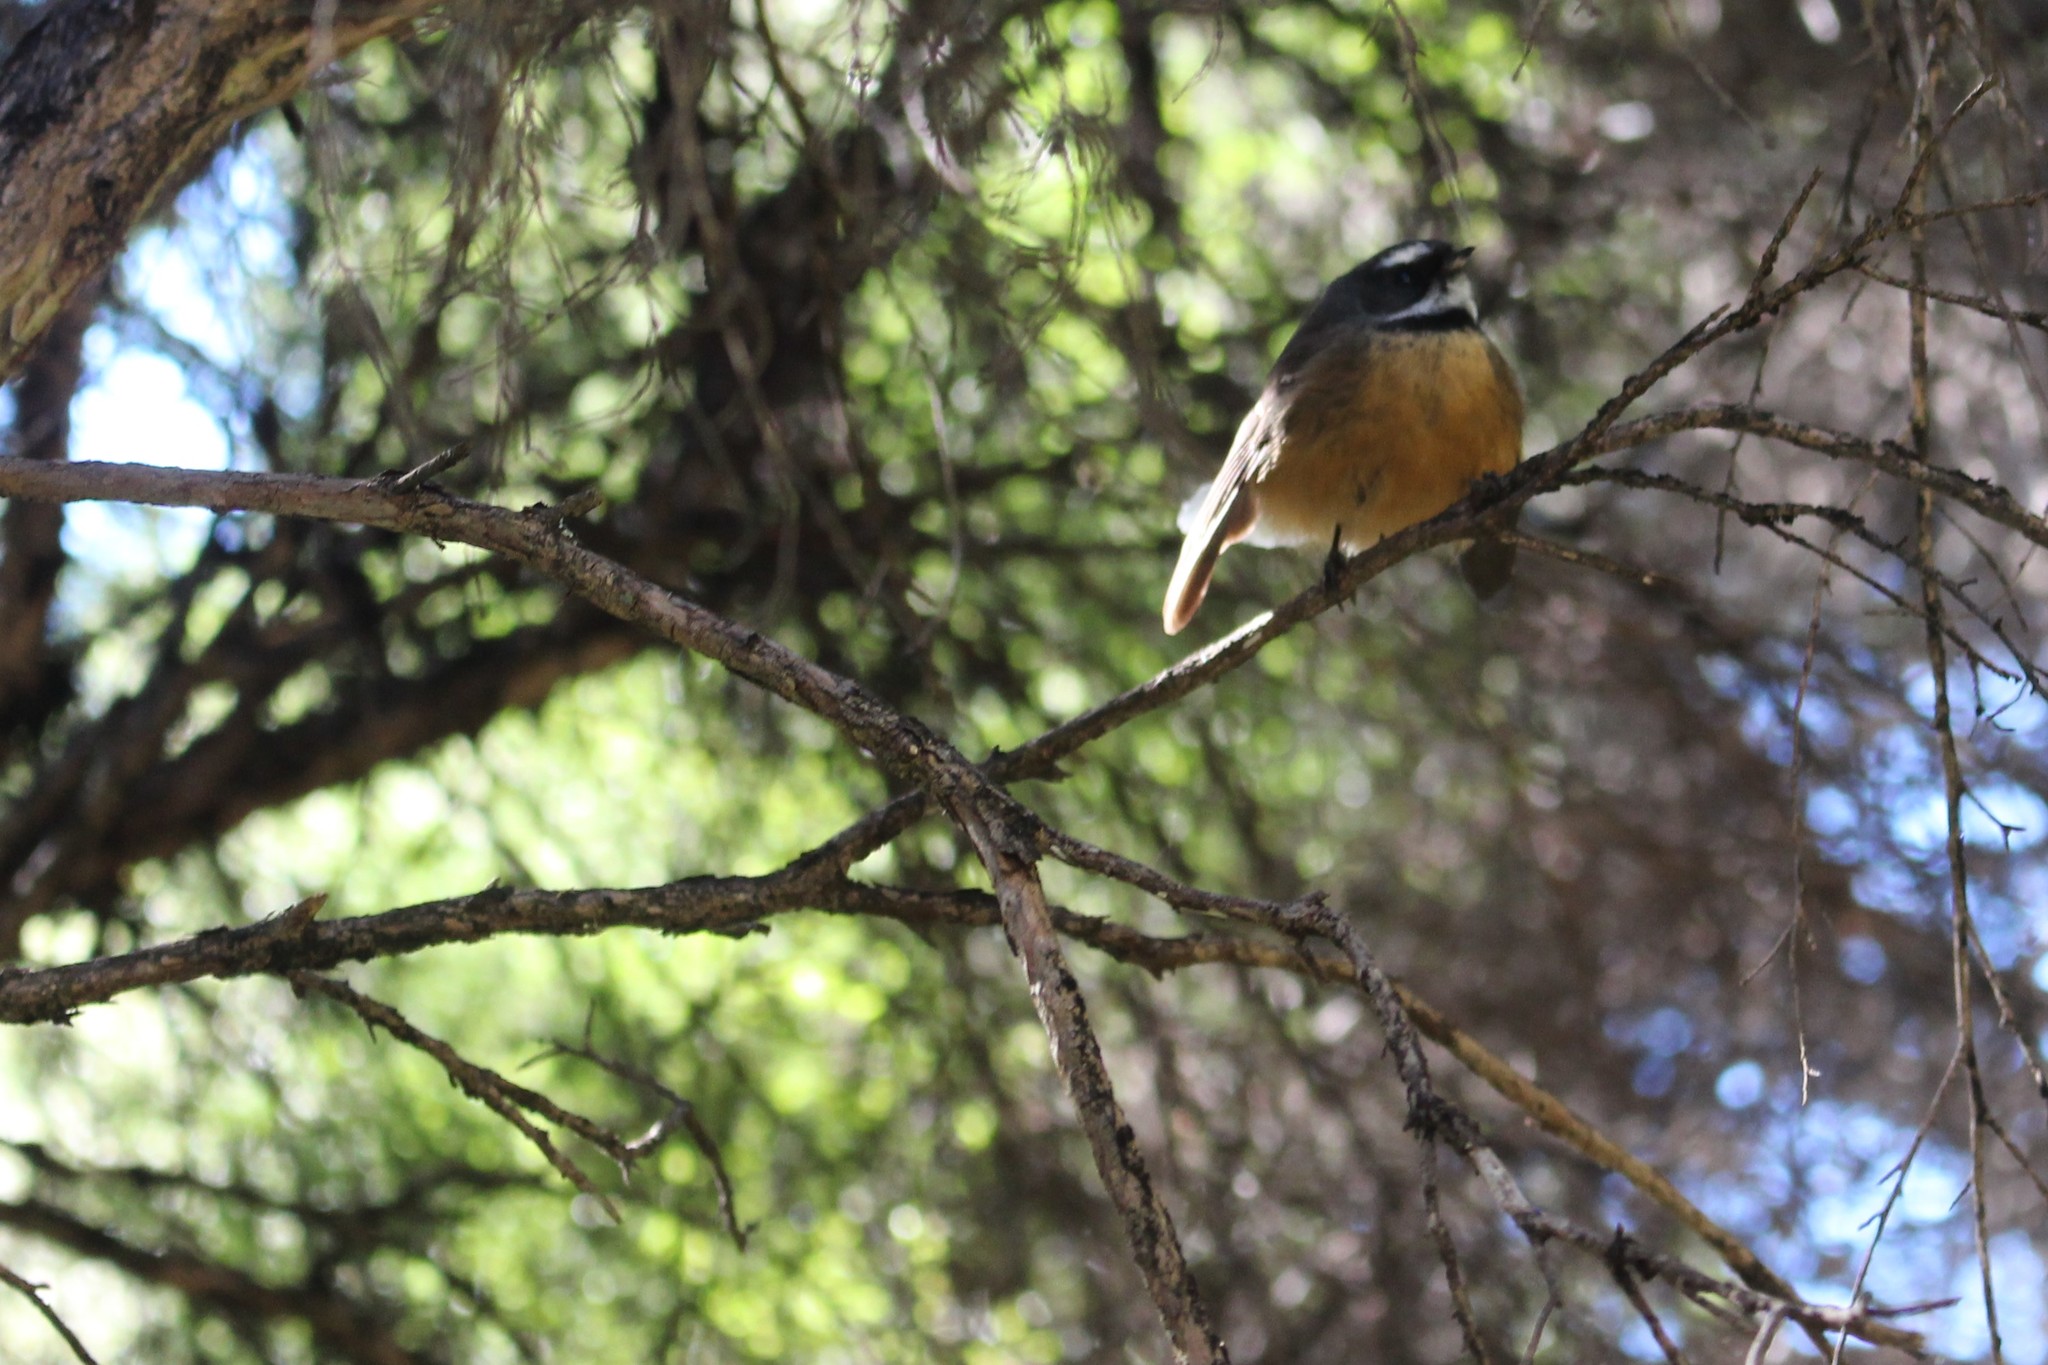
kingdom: Animalia
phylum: Chordata
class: Aves
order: Passeriformes
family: Rhipiduridae
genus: Rhipidura
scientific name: Rhipidura fuliginosa
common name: New zealand fantail
